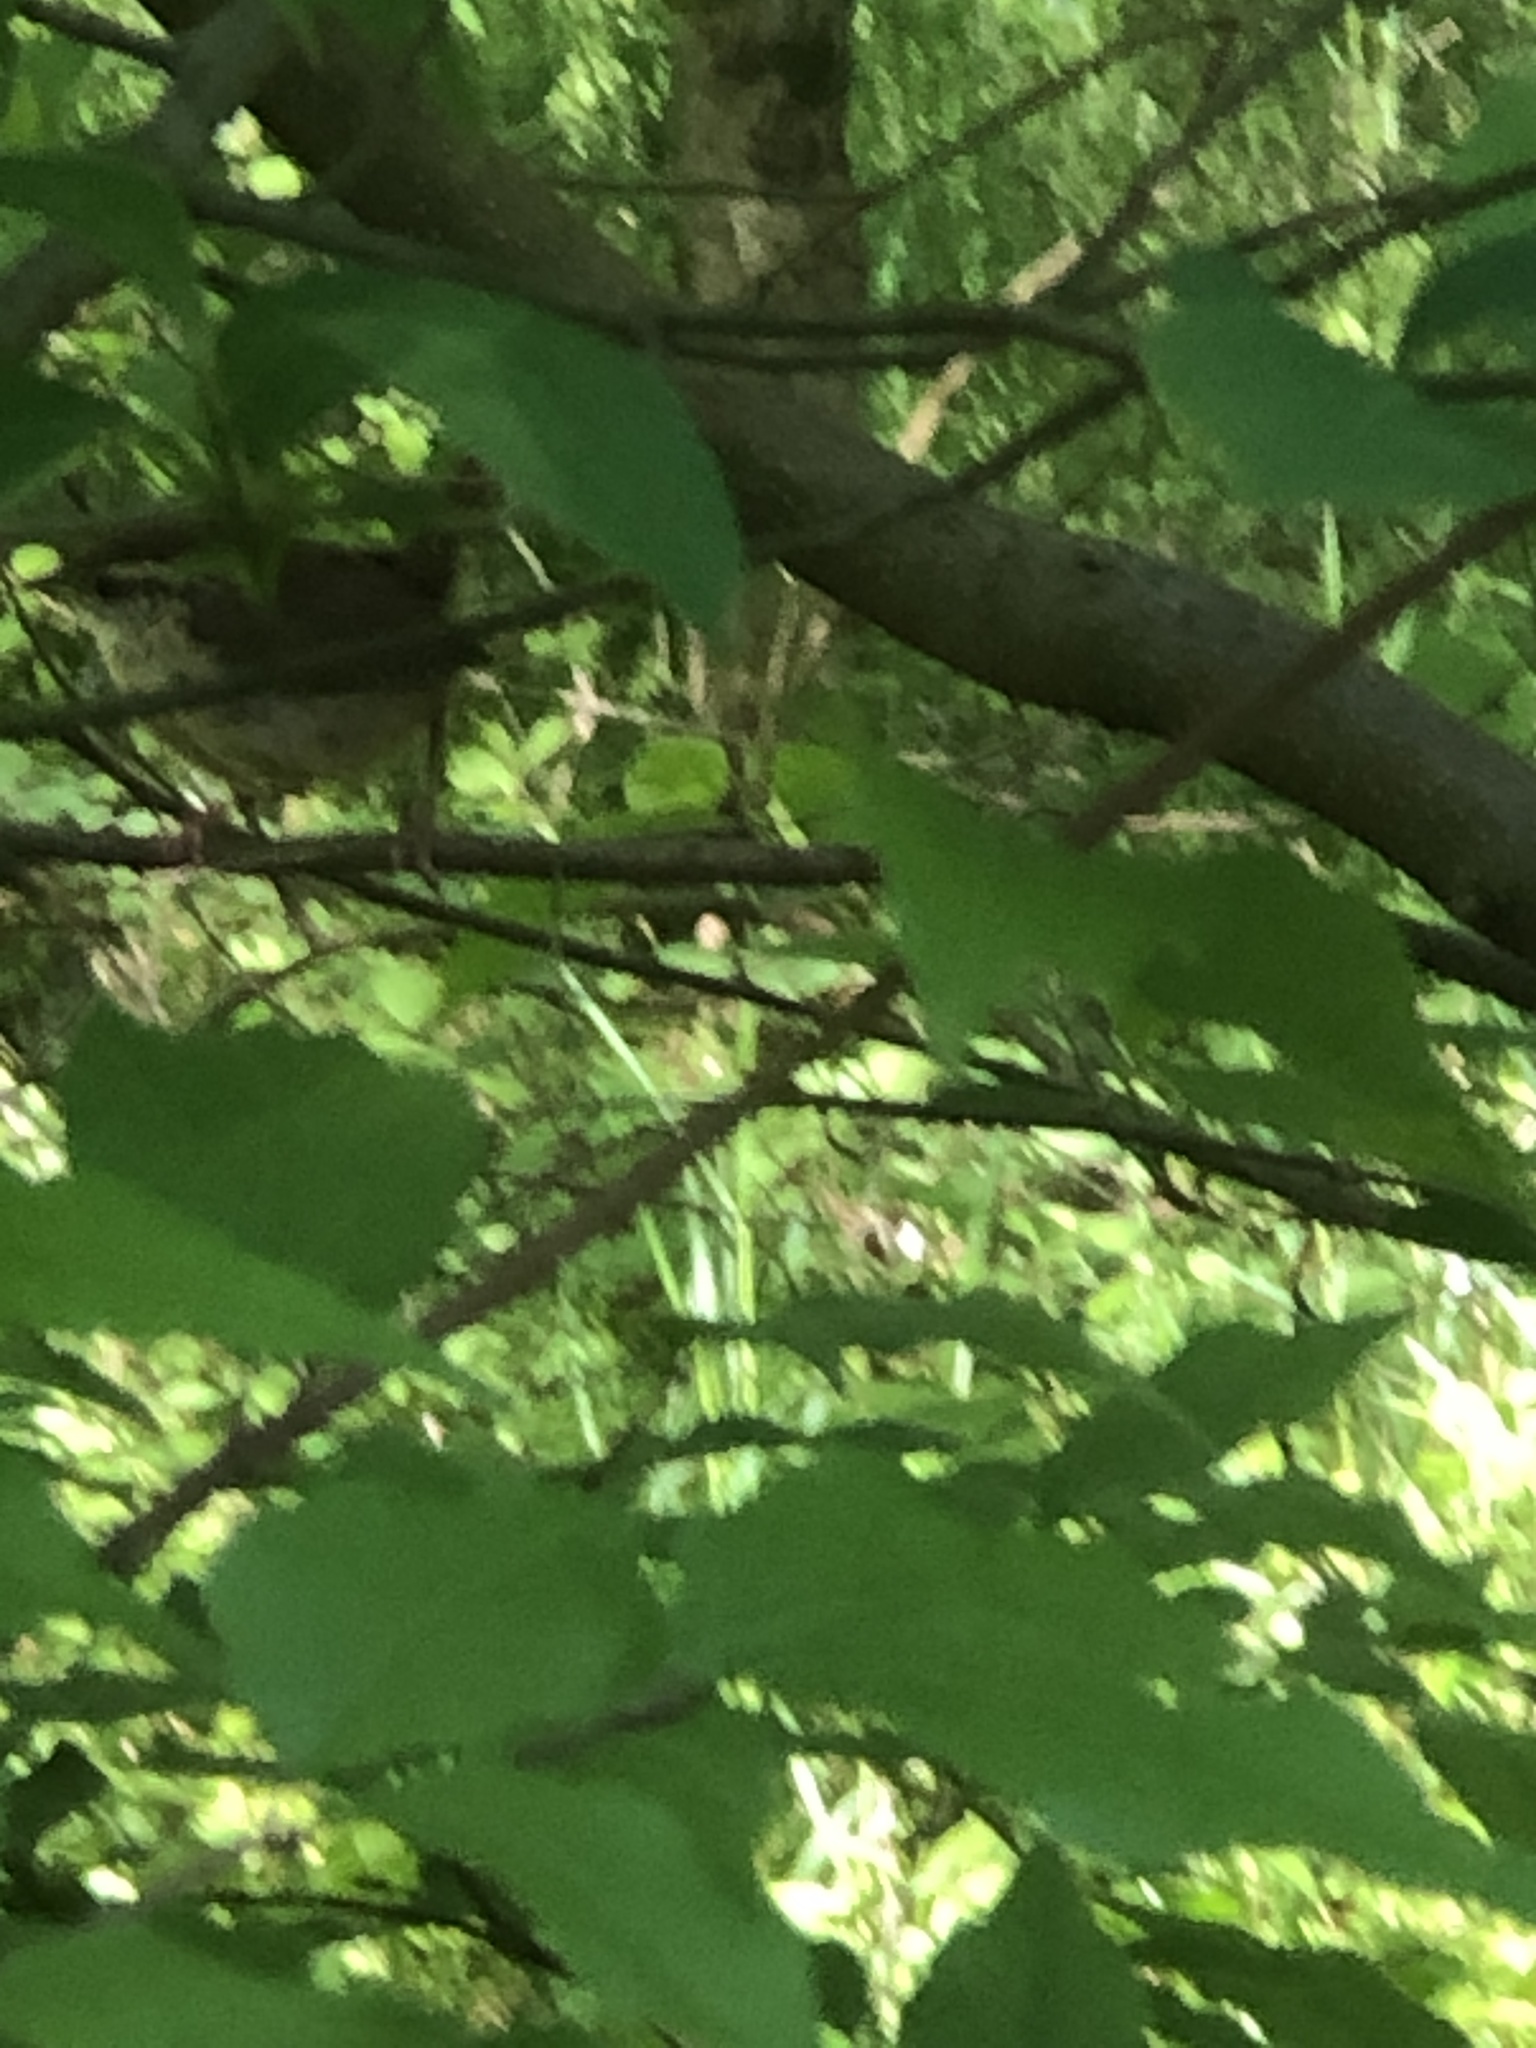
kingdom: Animalia
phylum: Chordata
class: Aves
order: Passeriformes
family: Troglodytidae
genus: Thryothorus
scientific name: Thryothorus ludovicianus
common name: Carolina wren
